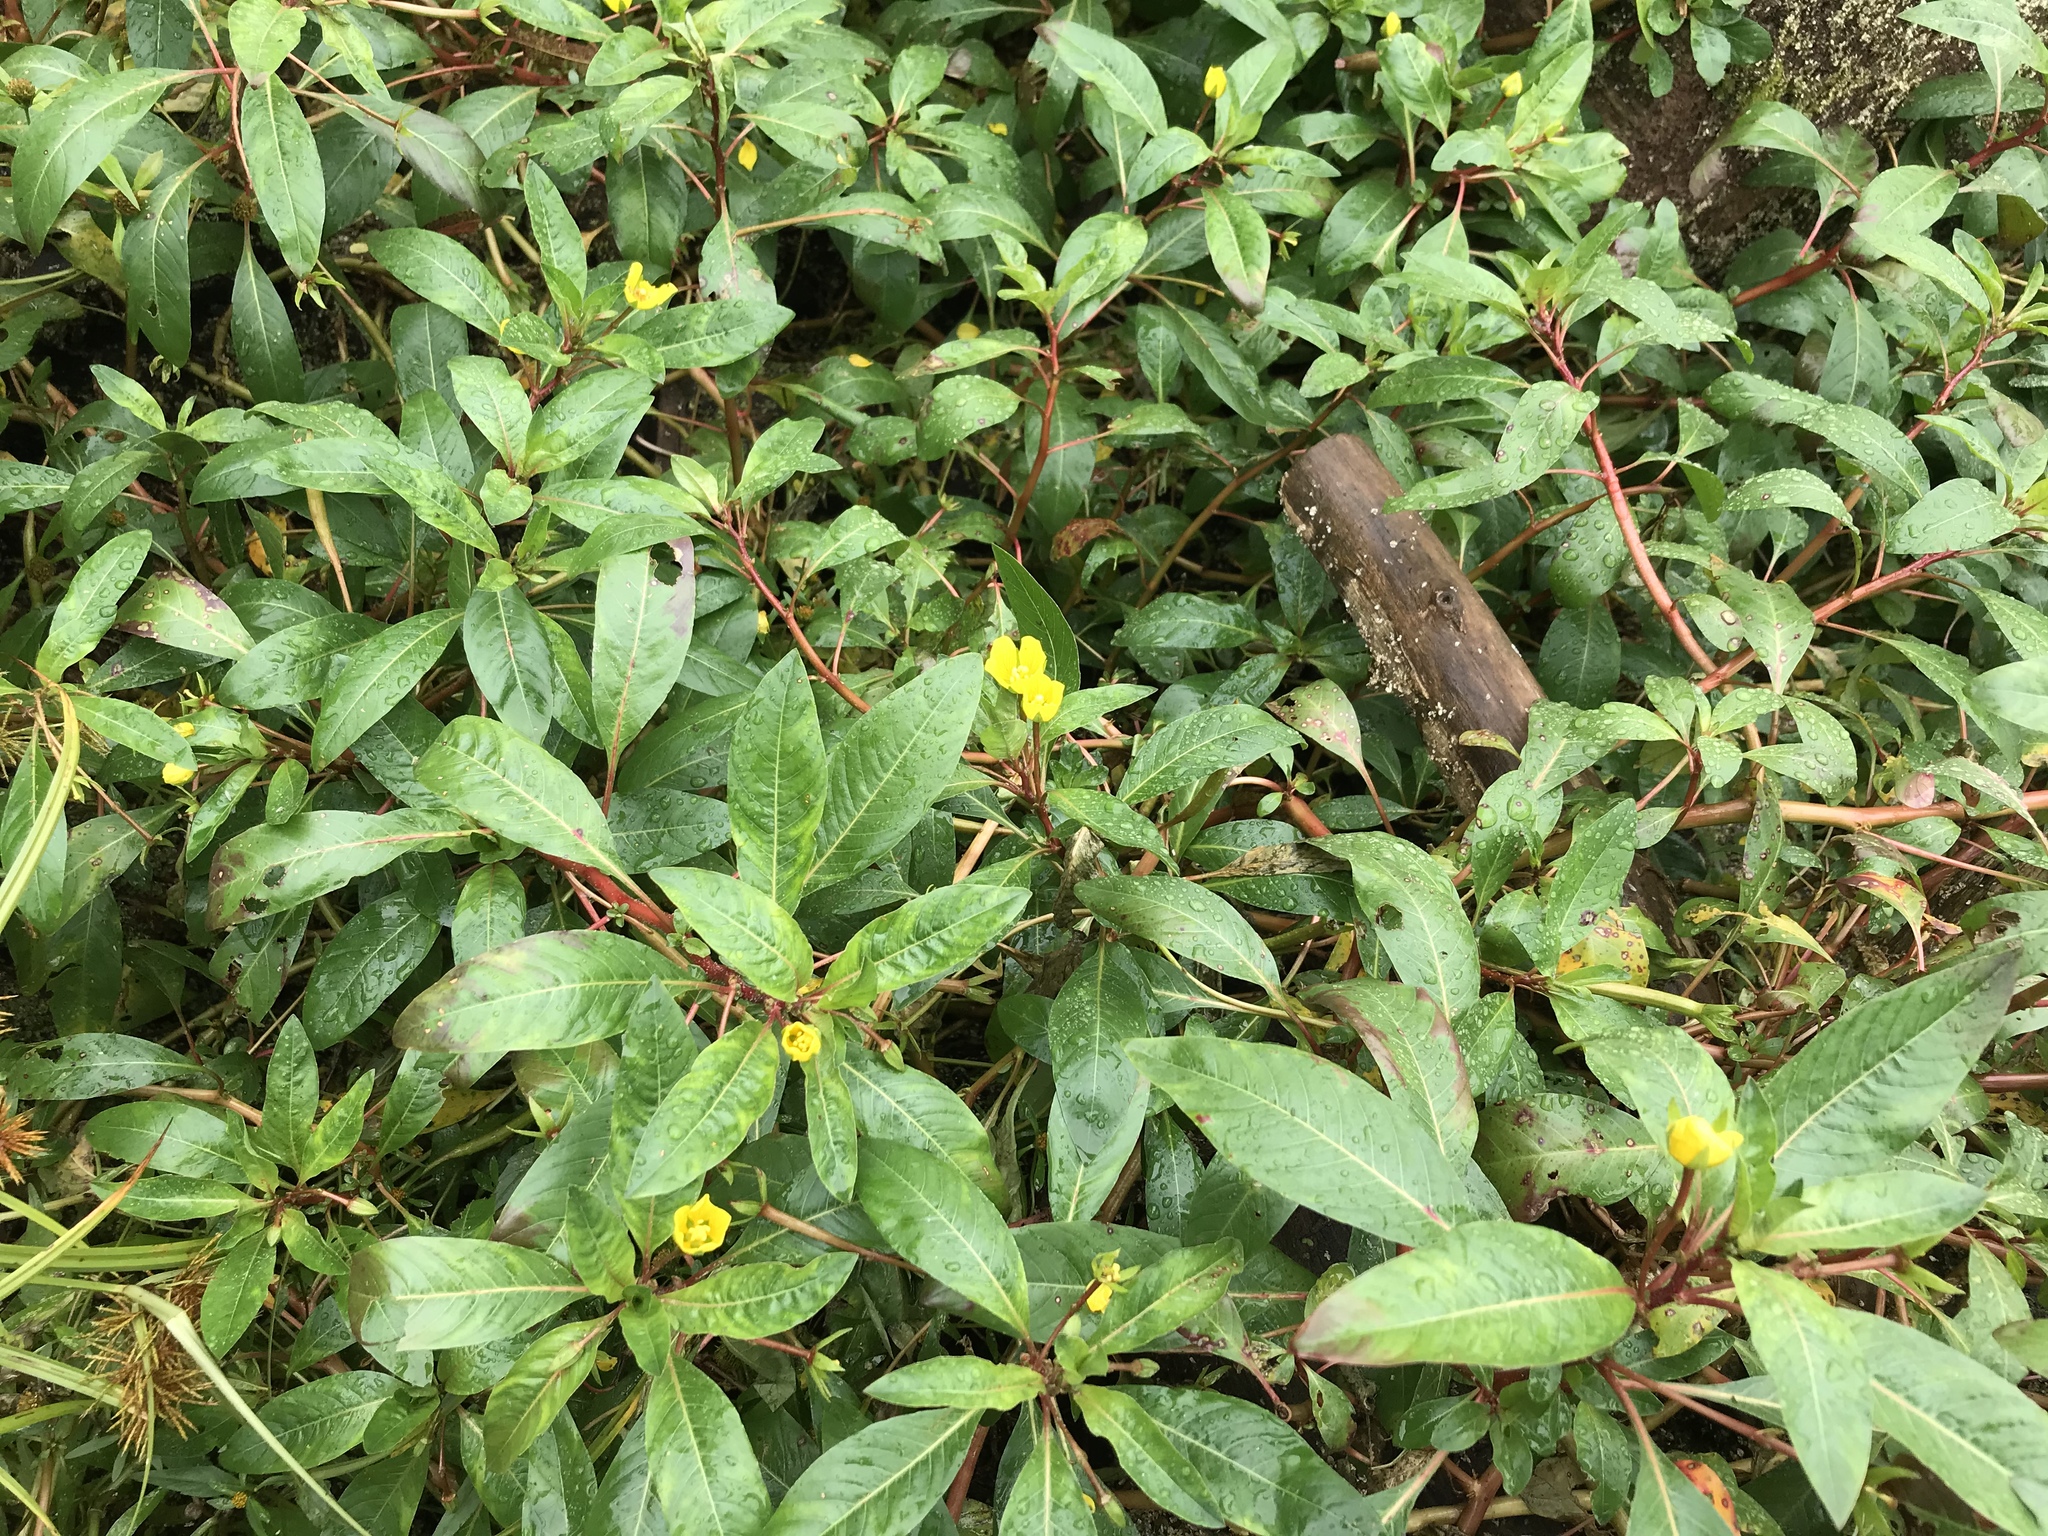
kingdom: Plantae
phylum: Tracheophyta
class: Magnoliopsida
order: Myrtales
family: Onagraceae
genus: Ludwigia
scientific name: Ludwigia hexapetala
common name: Water-primrose
